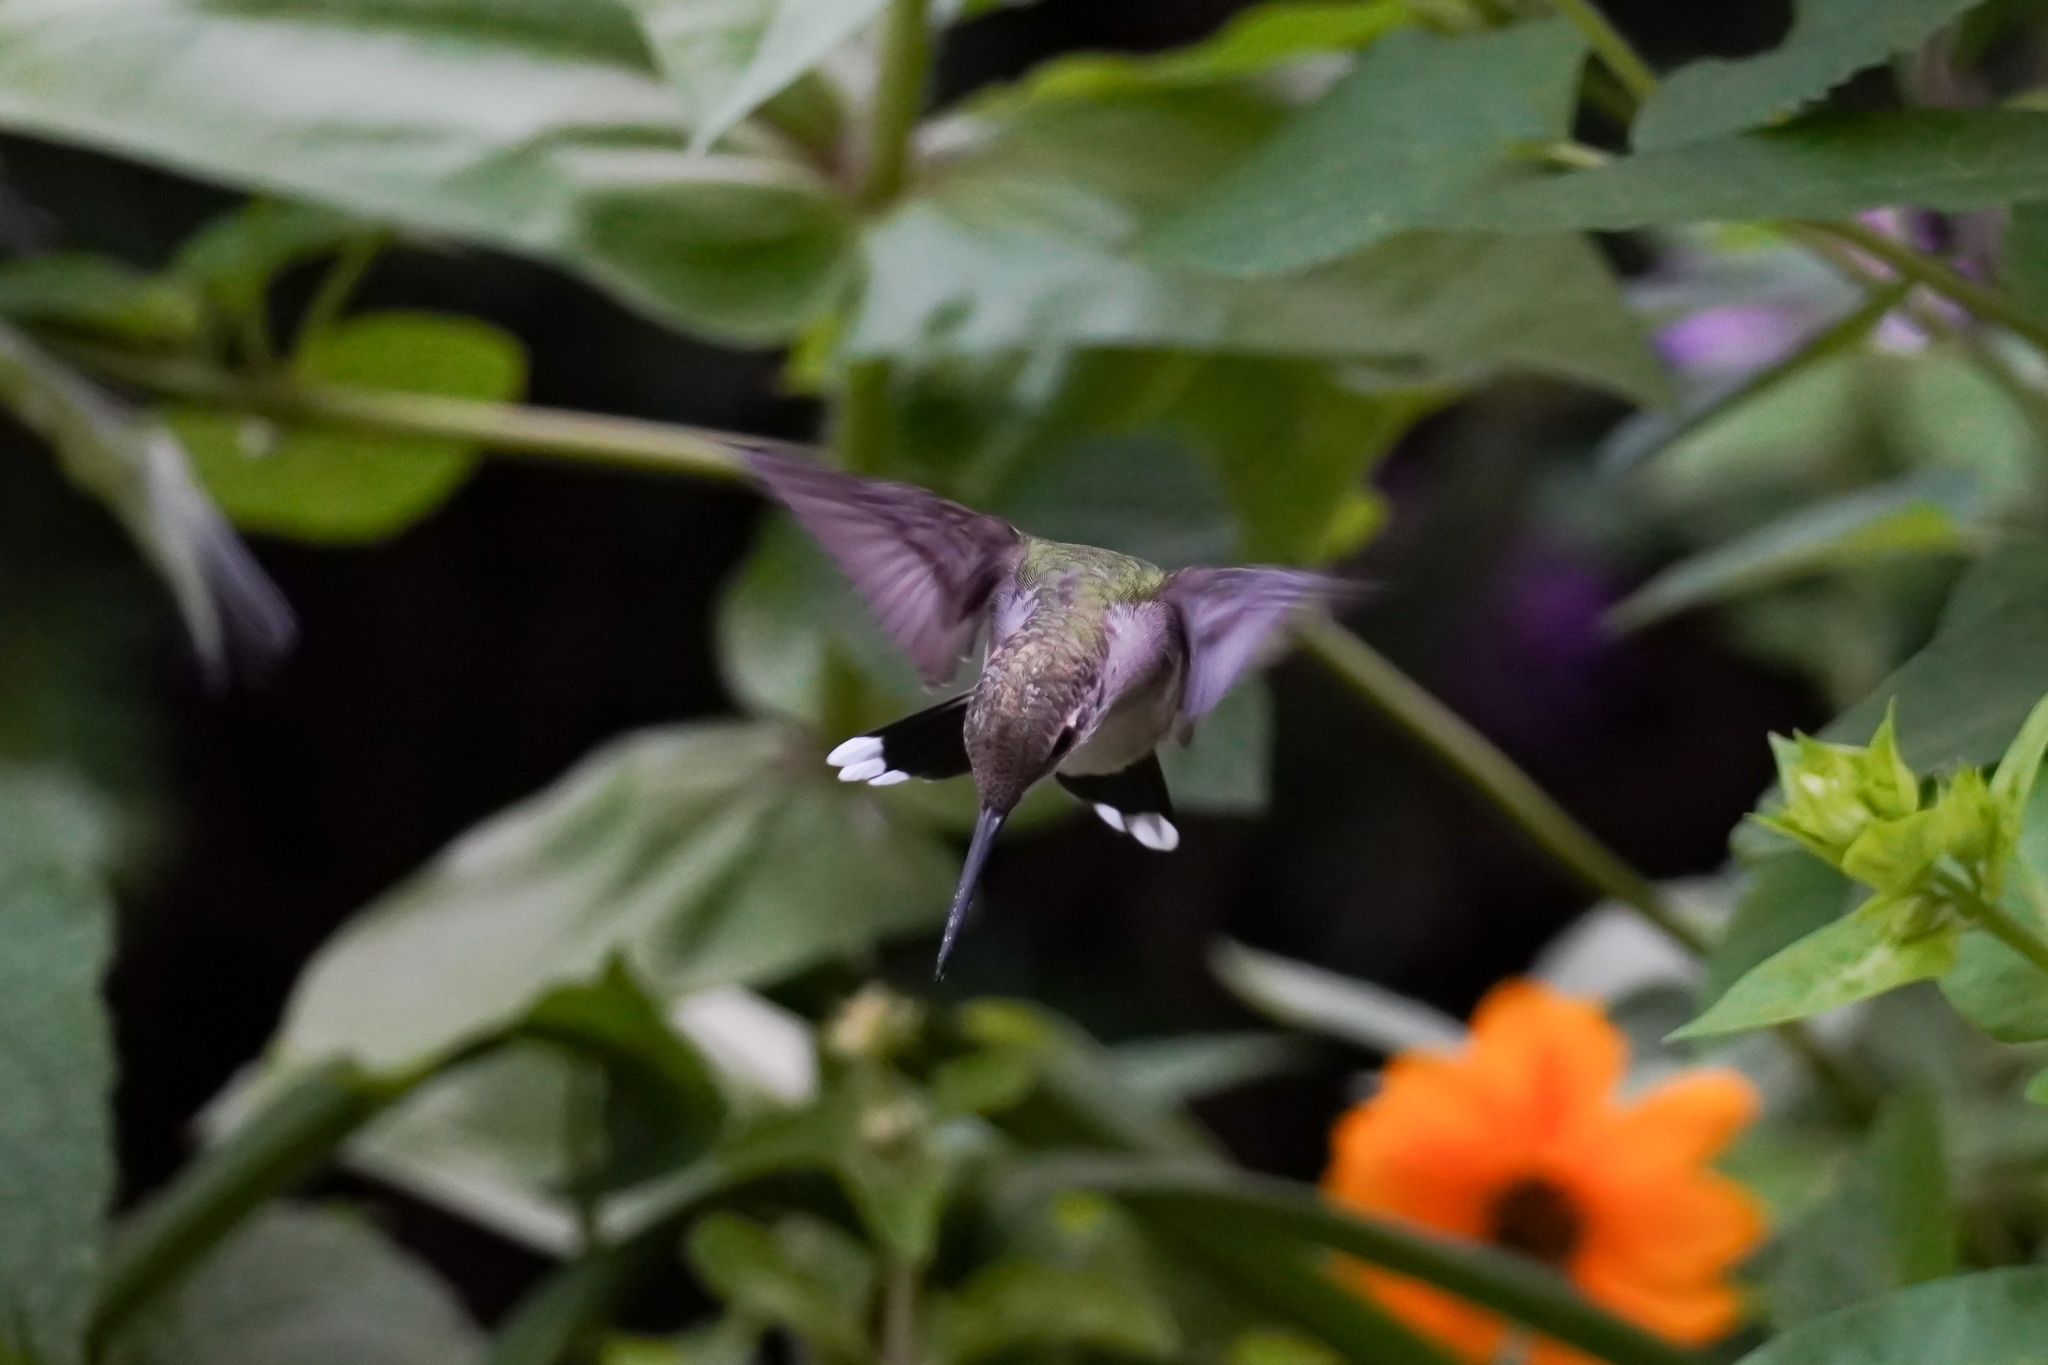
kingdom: Animalia
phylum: Chordata
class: Aves
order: Apodiformes
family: Trochilidae
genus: Archilochus
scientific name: Archilochus colubris
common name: Ruby-throated hummingbird
